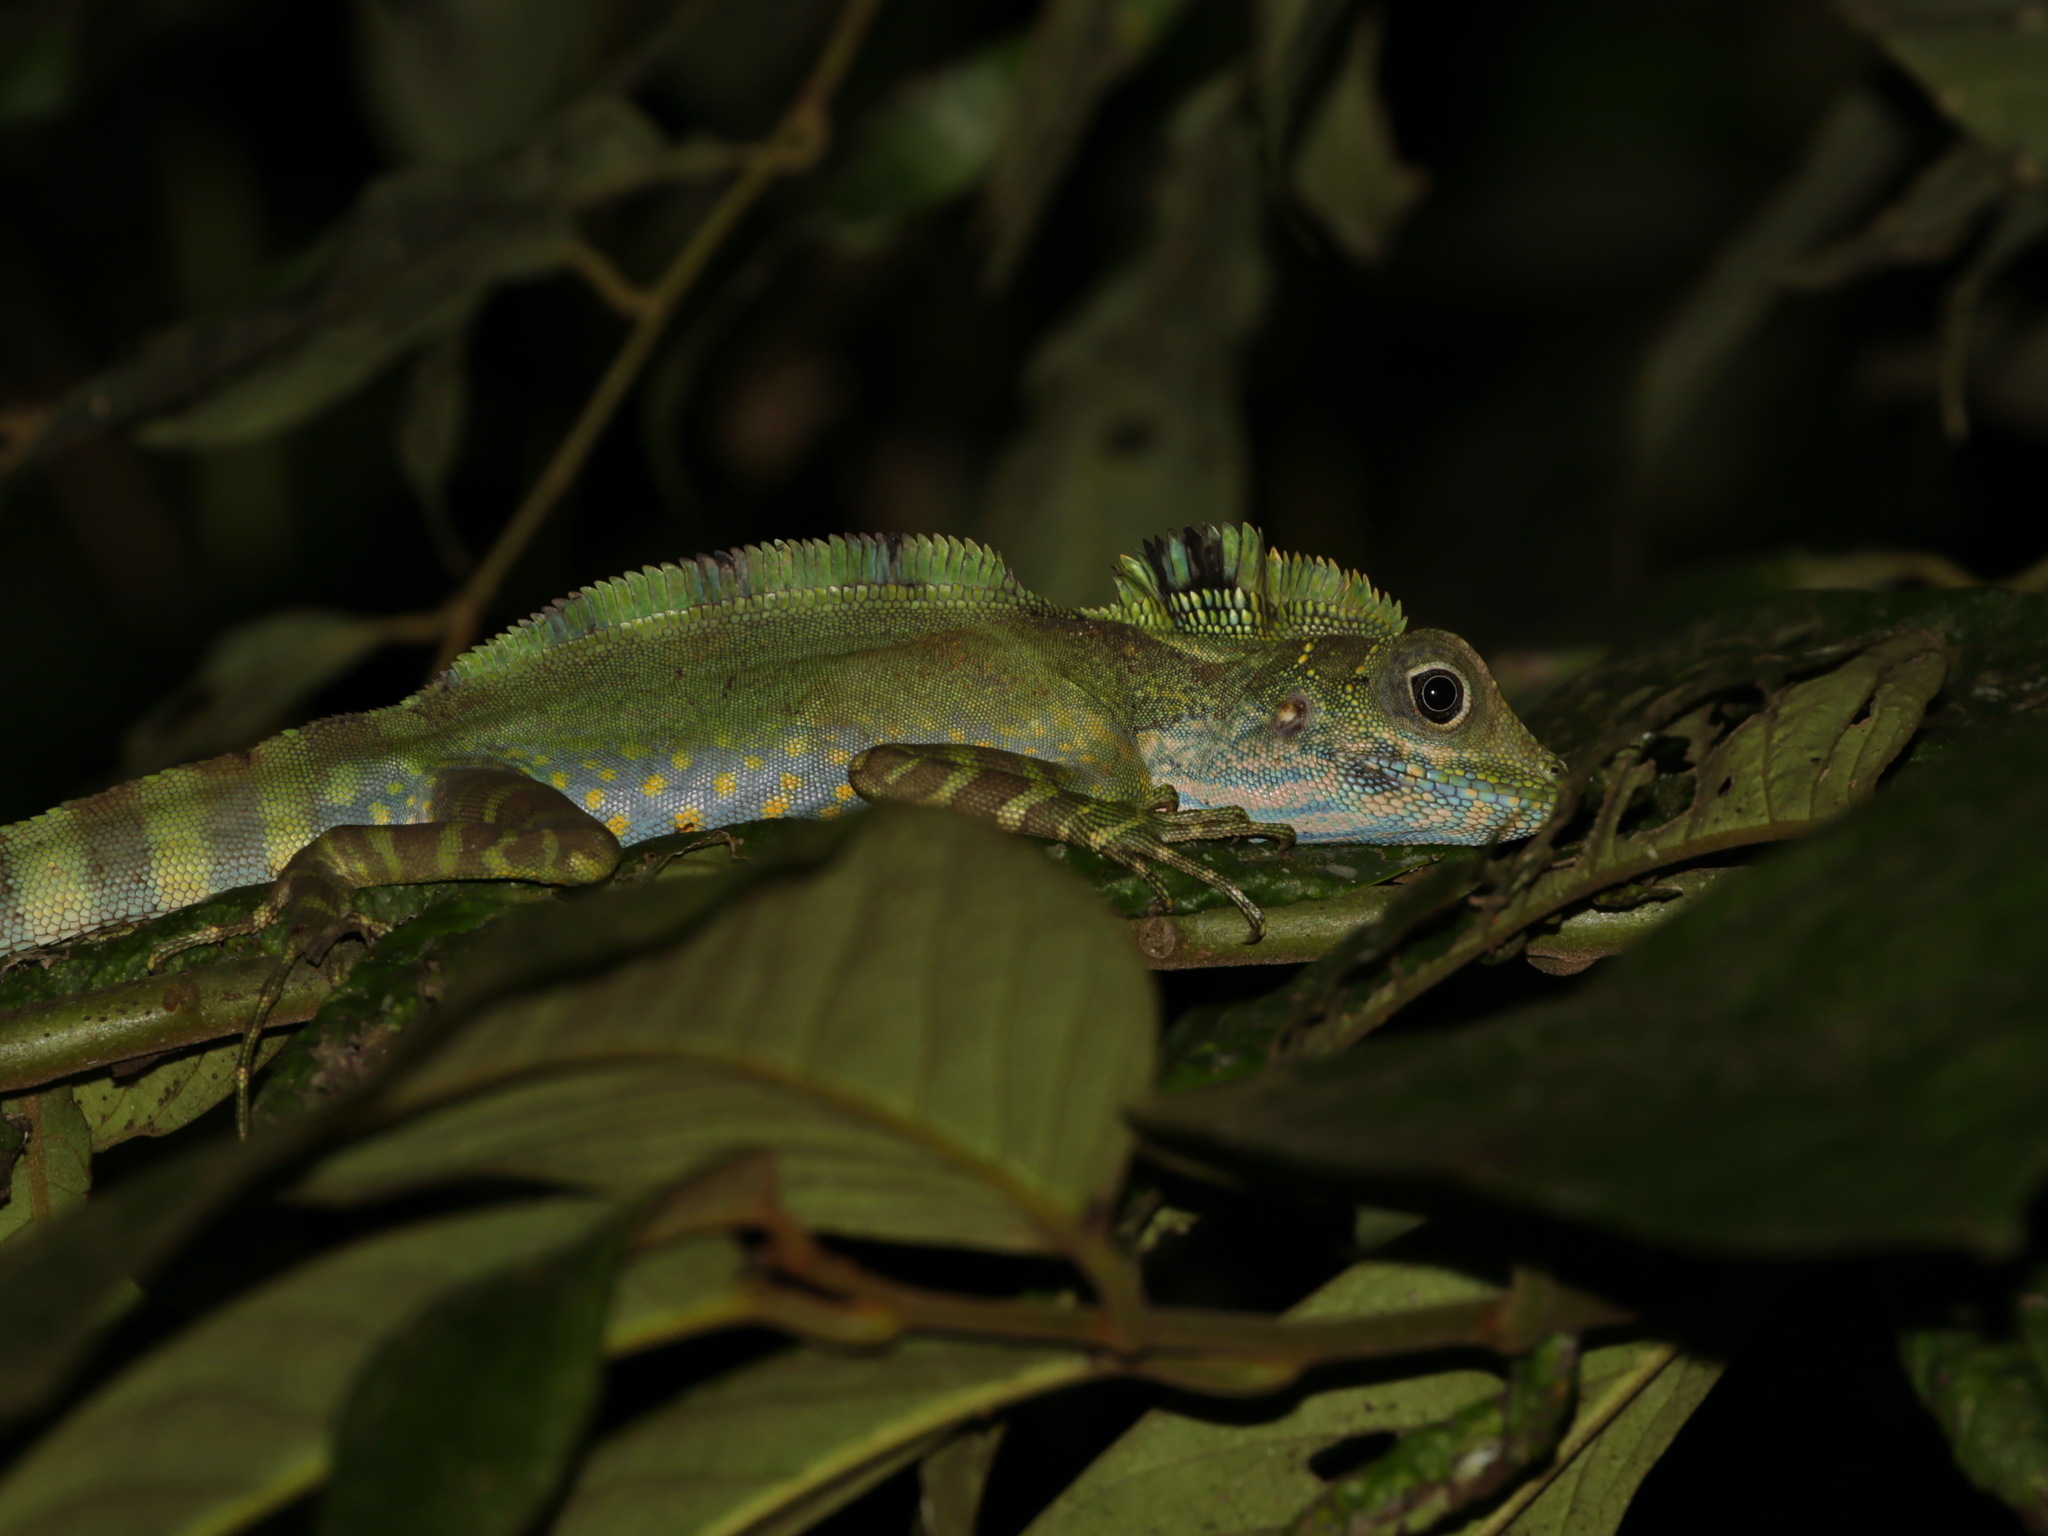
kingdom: Animalia
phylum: Chordata
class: Squamata
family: Agamidae
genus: Gonocephalus
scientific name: Gonocephalus grandis
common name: Giant forest dragon
